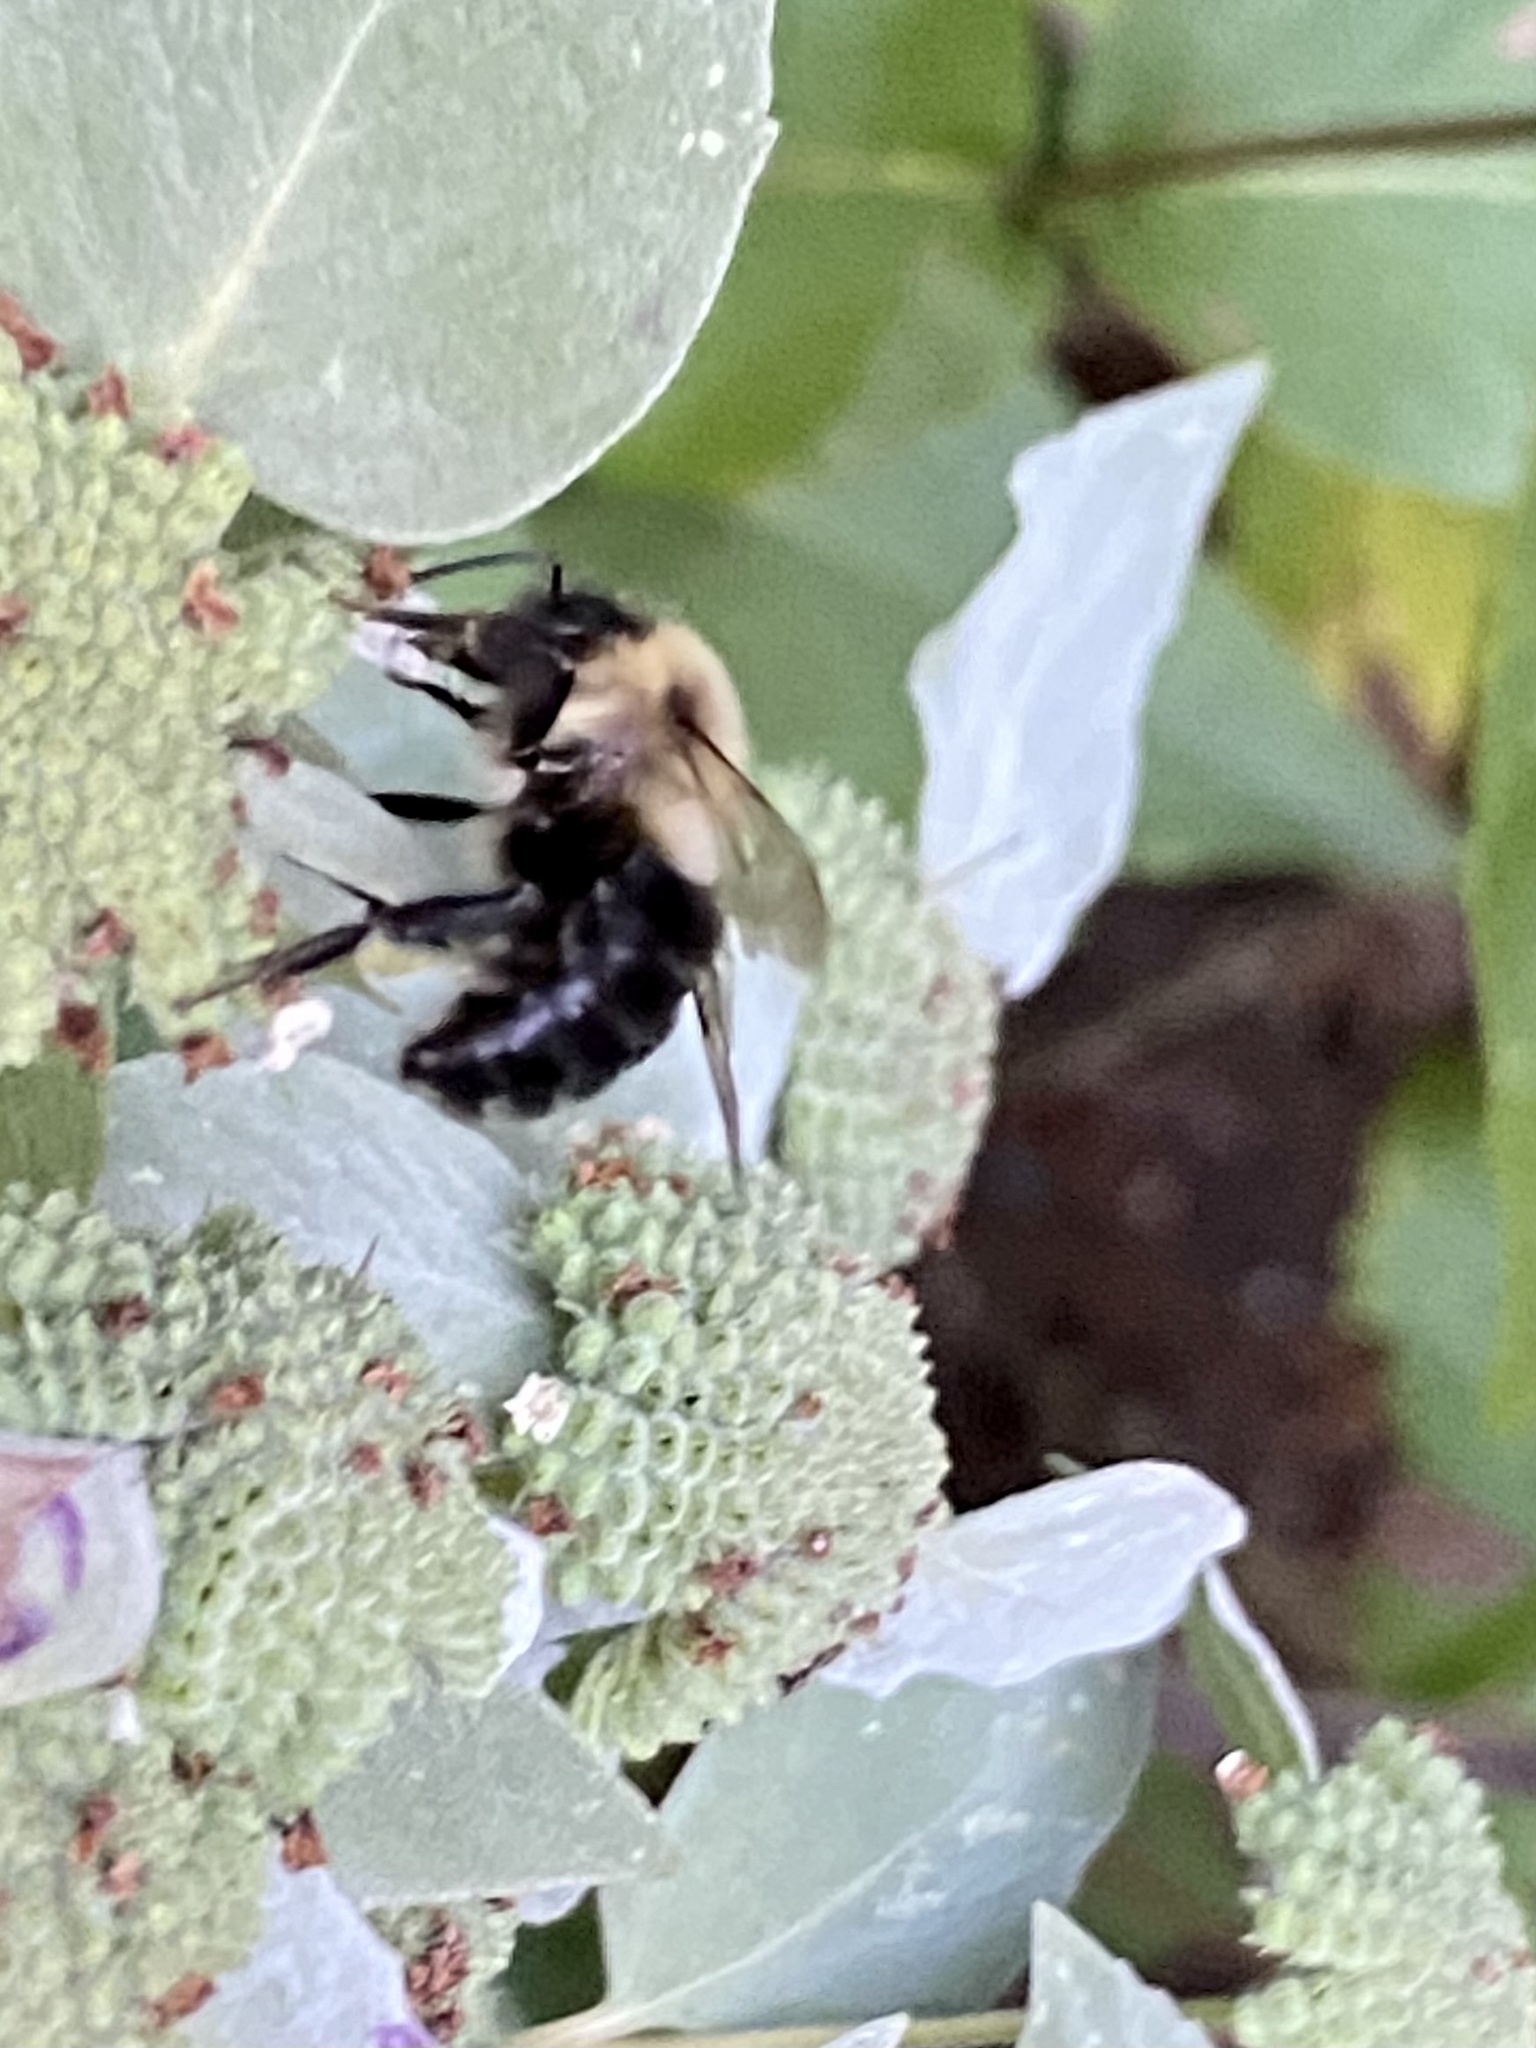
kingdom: Animalia
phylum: Arthropoda
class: Insecta
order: Hymenoptera
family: Apidae
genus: Bombus
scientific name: Bombus impatiens
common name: Common eastern bumble bee
